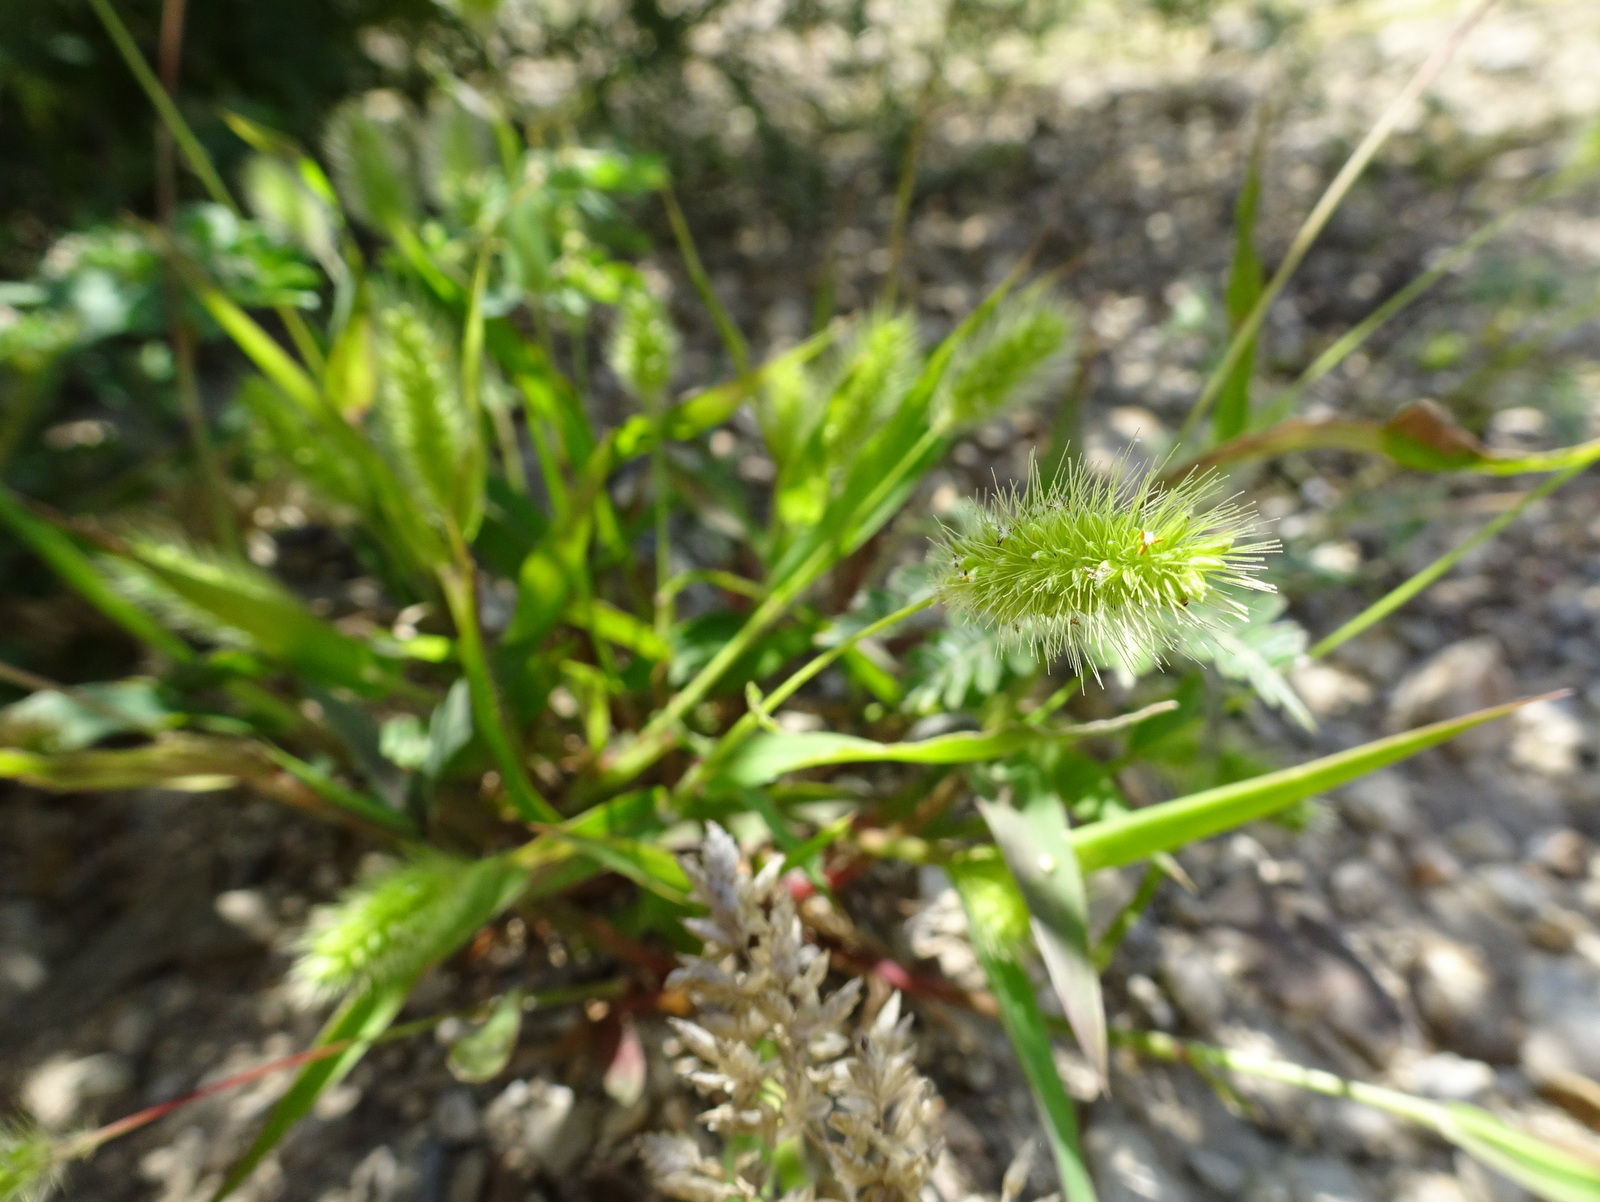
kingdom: Plantae
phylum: Tracheophyta
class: Liliopsida
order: Poales
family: Poaceae
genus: Setaria
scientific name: Setaria viridis
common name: Green bristlegrass
